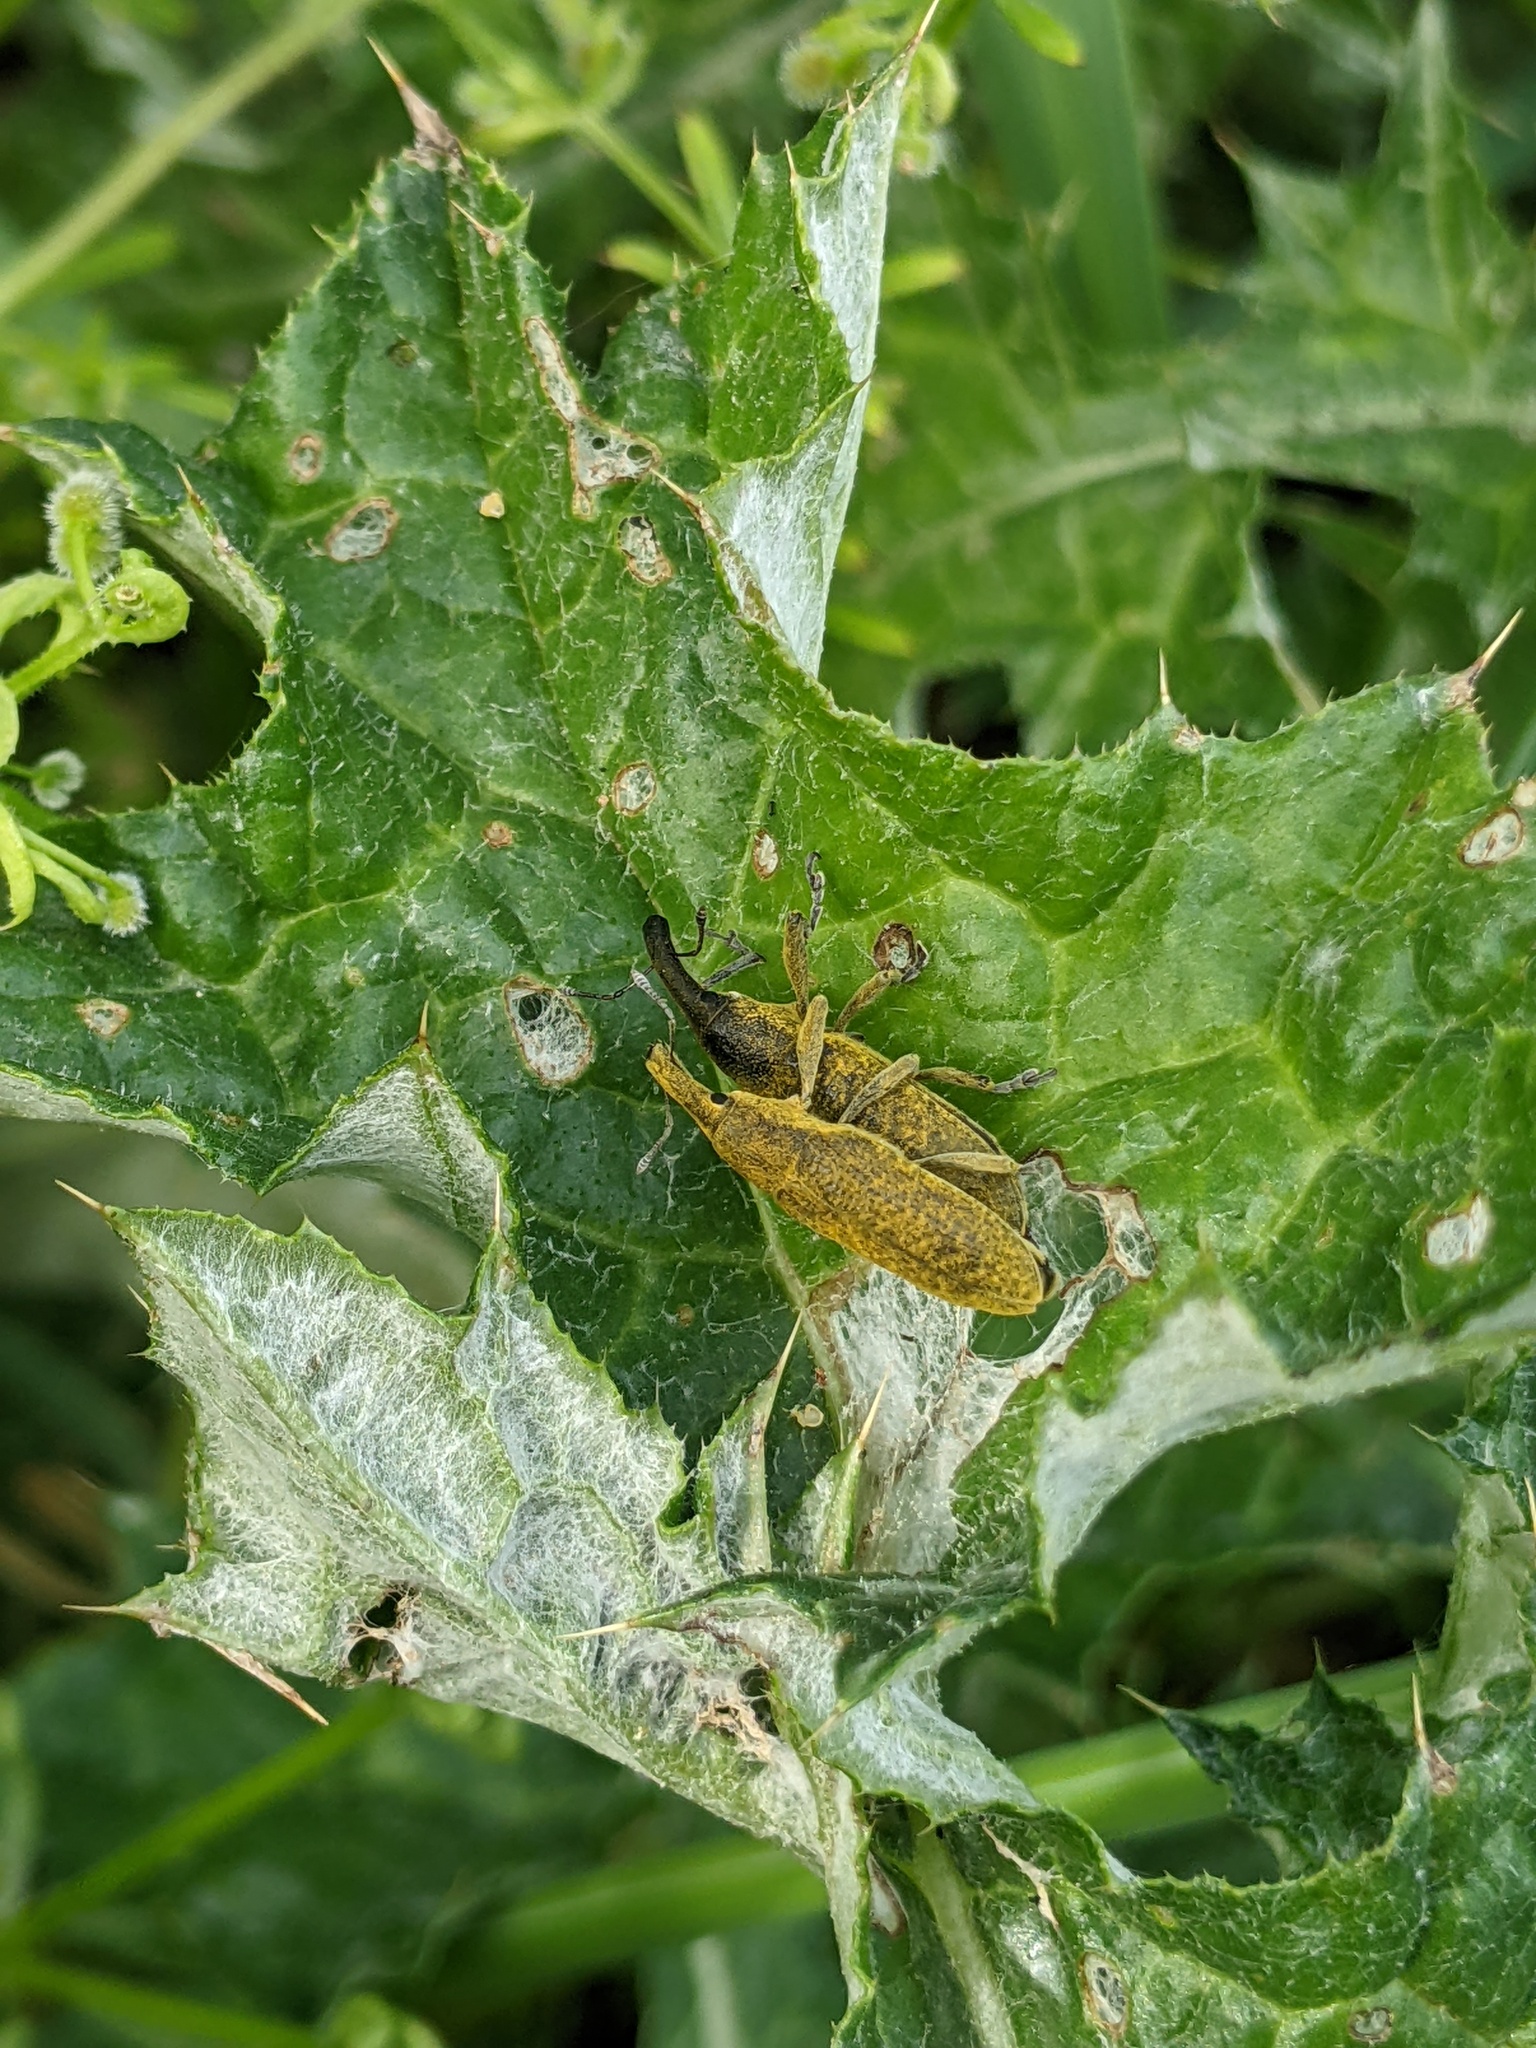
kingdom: Animalia
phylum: Arthropoda
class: Insecta
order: Coleoptera
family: Curculionidae
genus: Lixus
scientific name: Lixus pulverulentus
